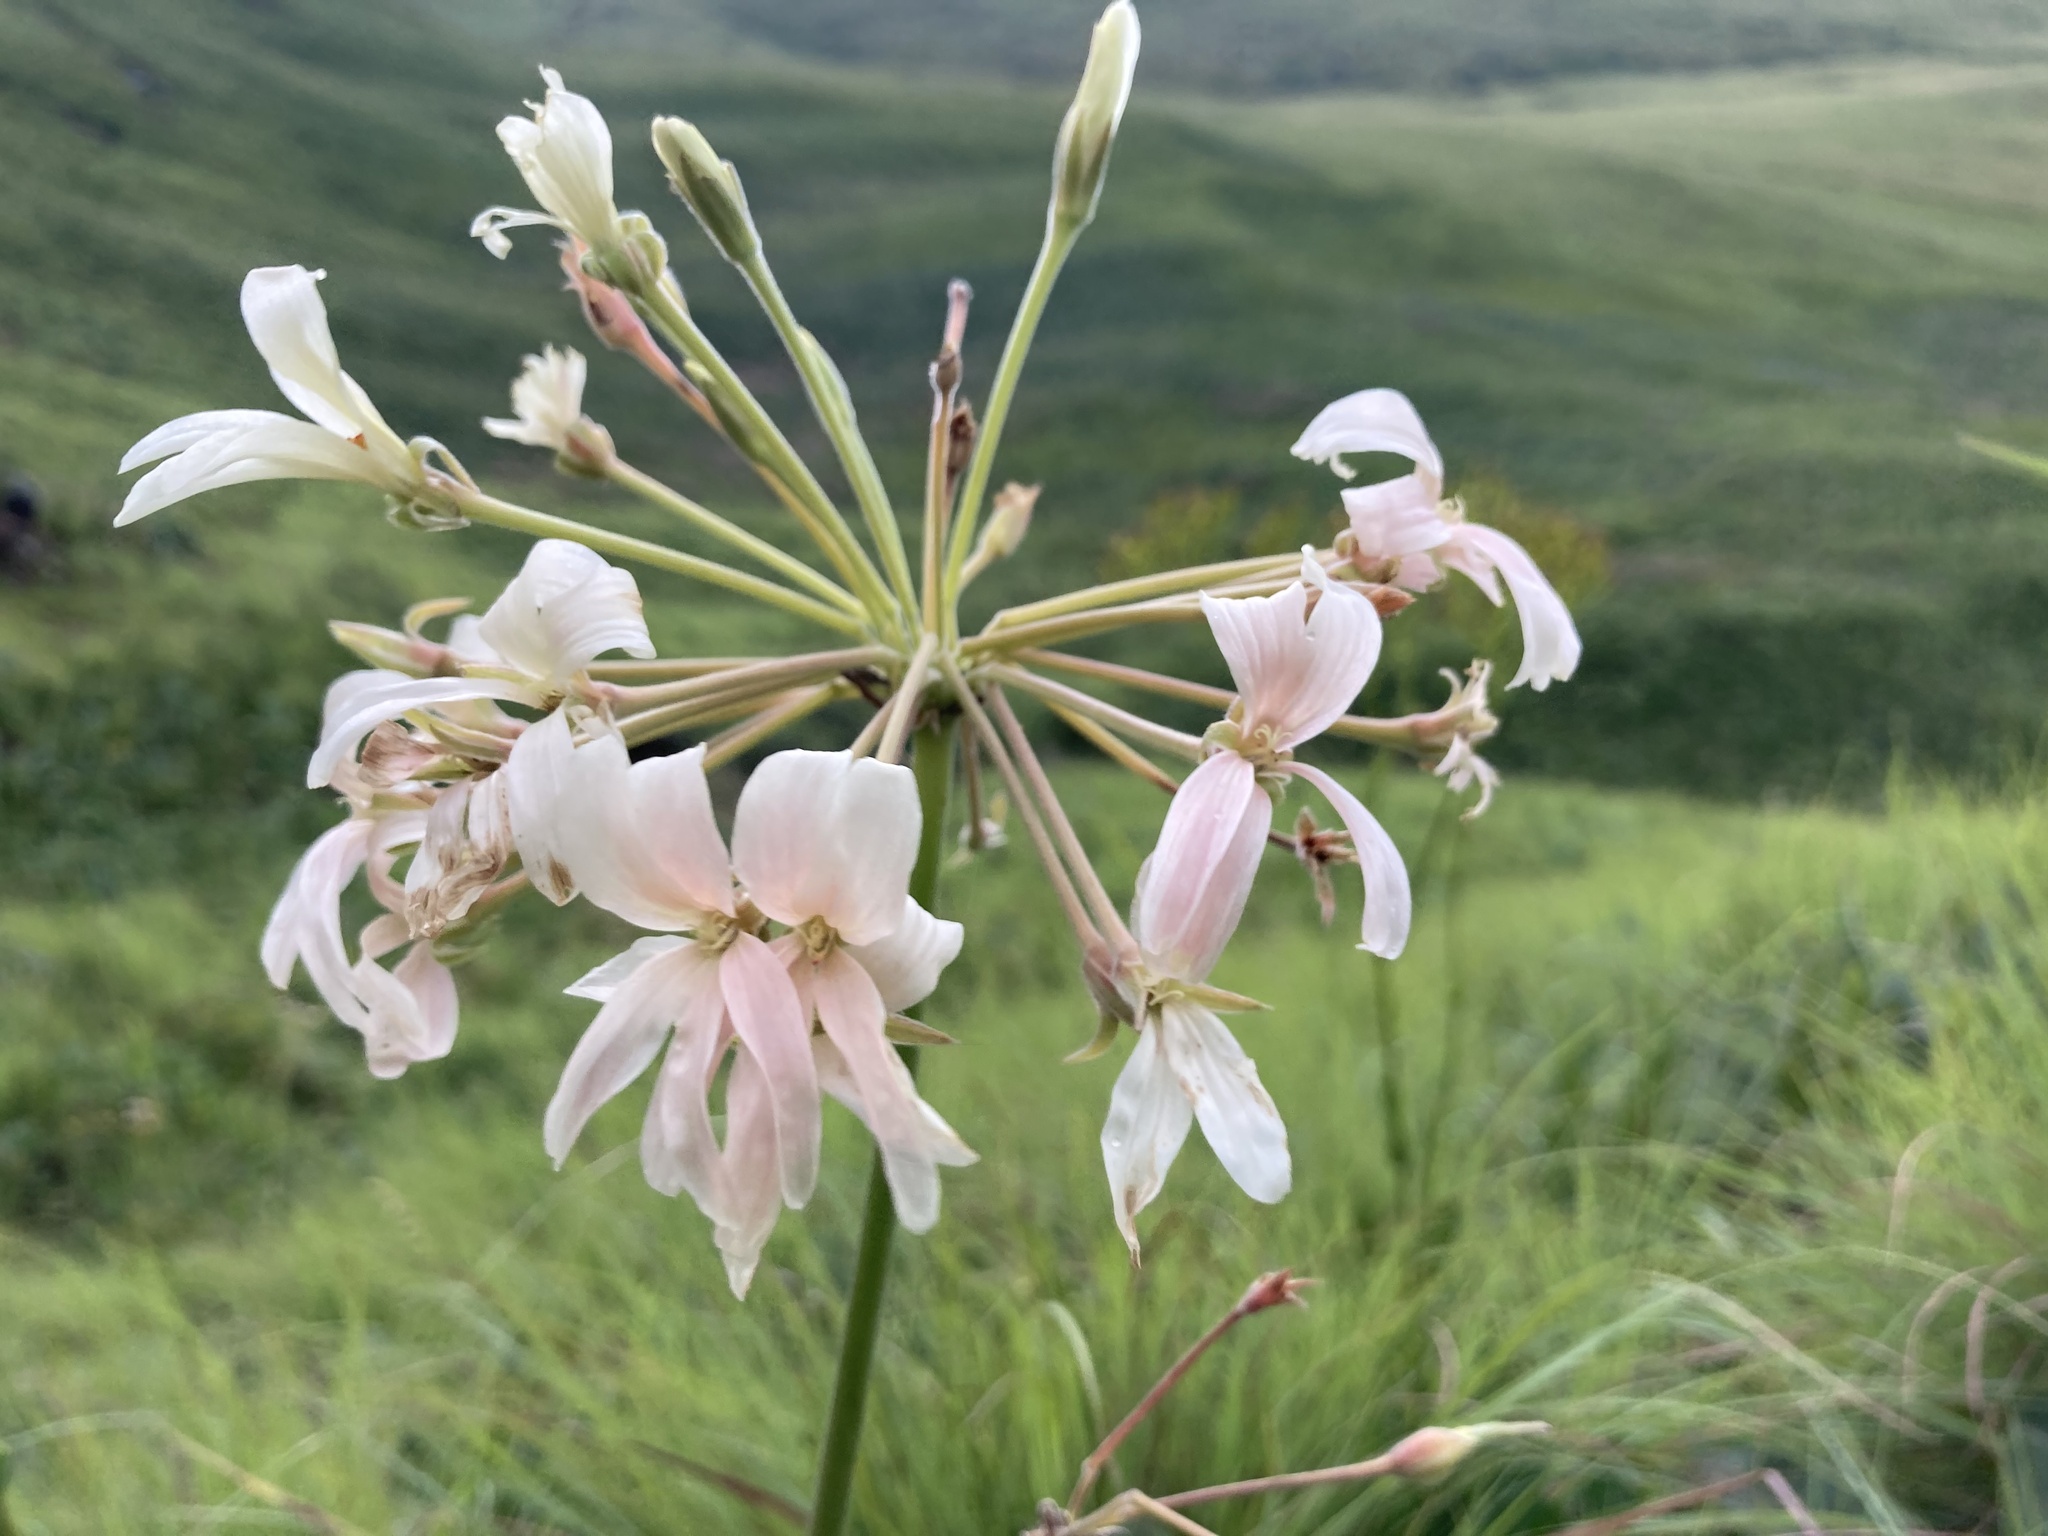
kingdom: Plantae
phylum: Tracheophyta
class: Magnoliopsida
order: Geraniales
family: Geraniaceae
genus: Pelargonium
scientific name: Pelargonium luridum
